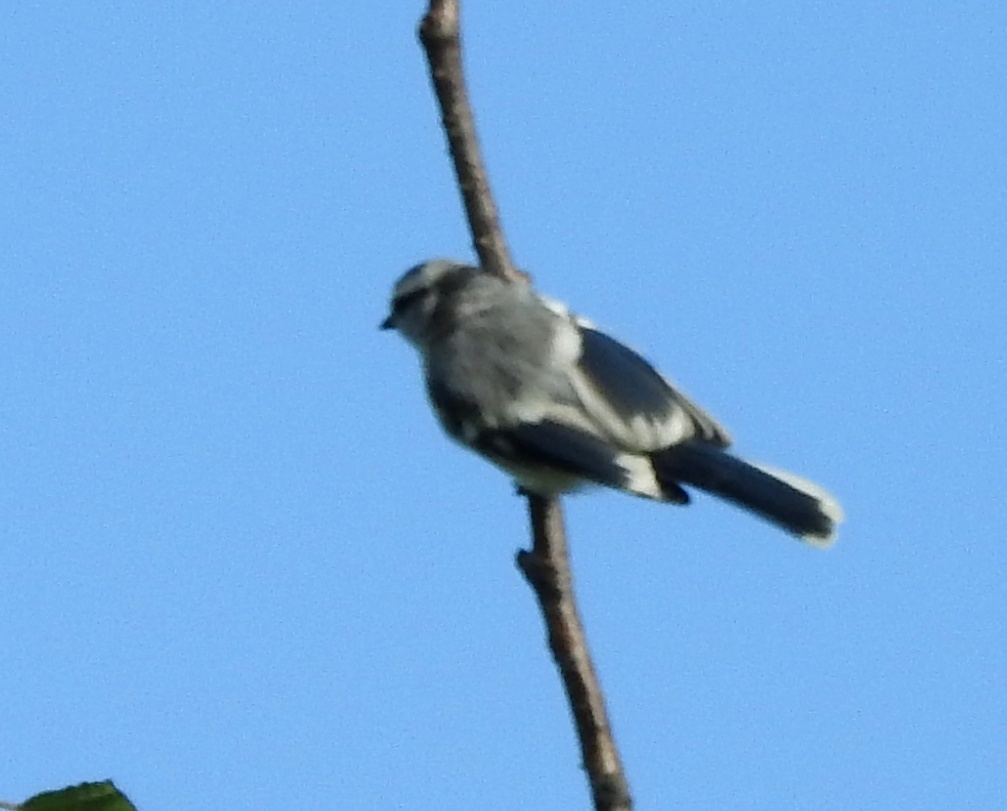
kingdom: Animalia
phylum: Chordata
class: Aves
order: Passeriformes
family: Paridae
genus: Cyanistes
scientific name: Cyanistes cyanus
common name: Azure tit
